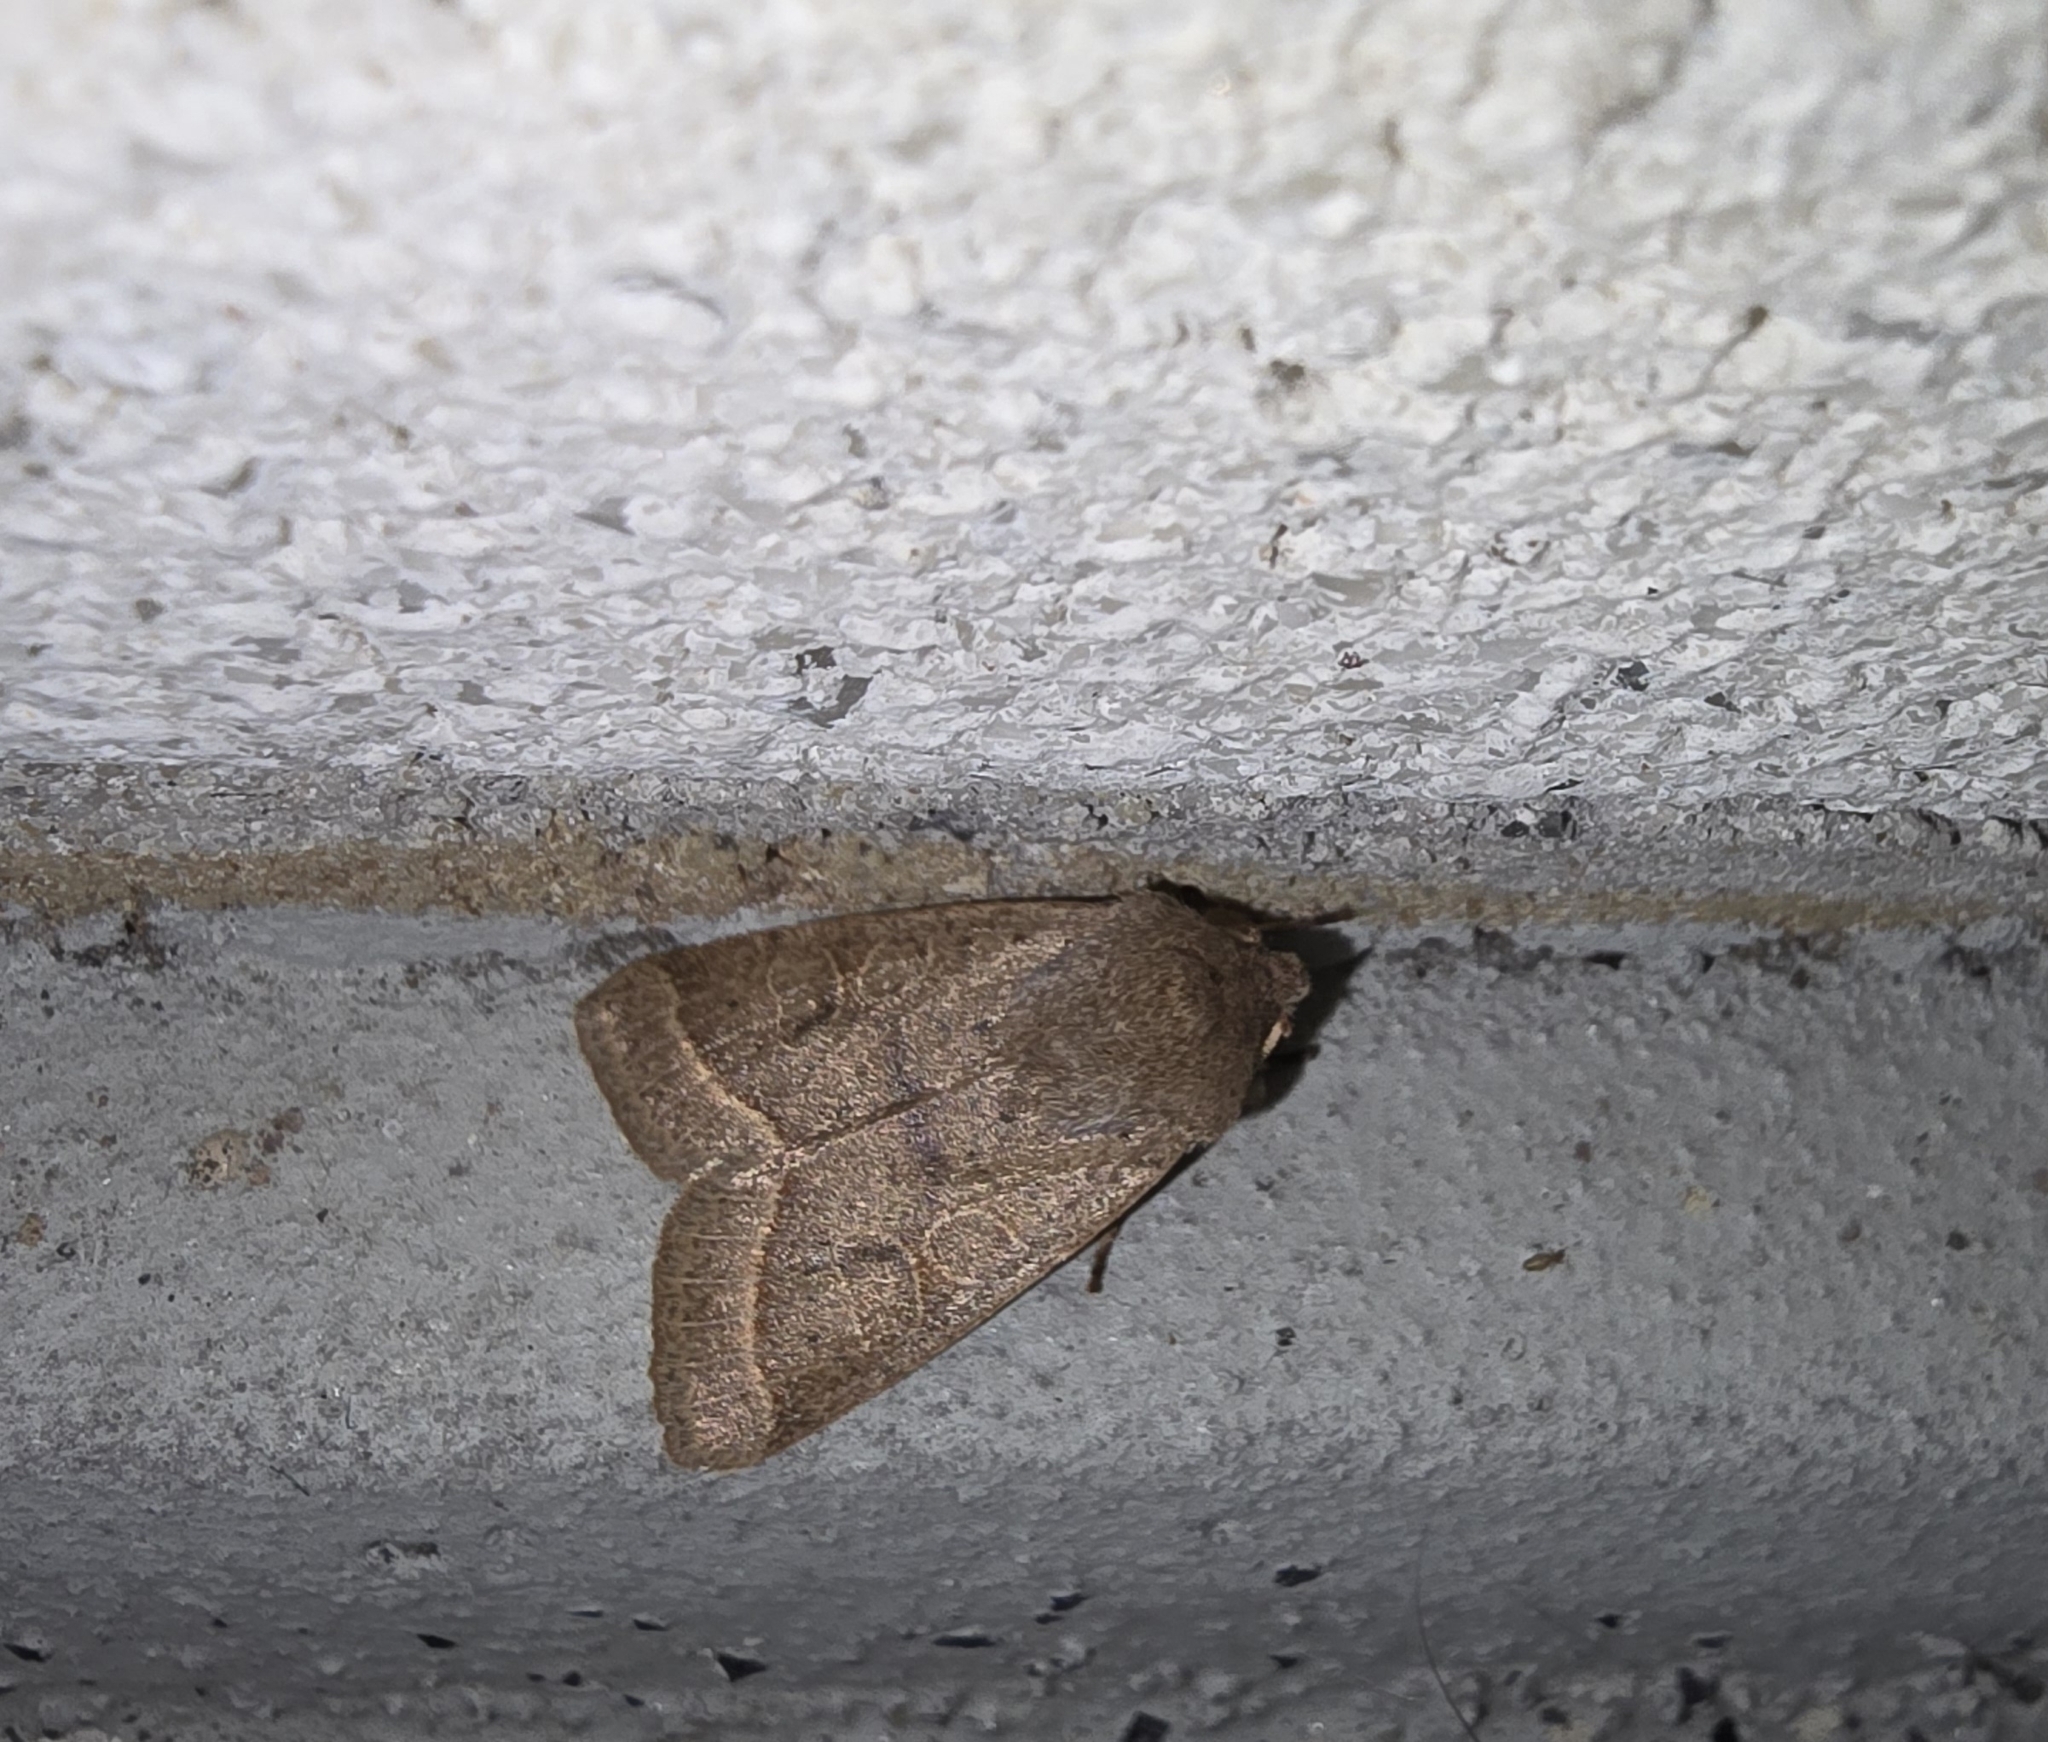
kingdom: Animalia
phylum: Arthropoda
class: Insecta
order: Lepidoptera
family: Noctuidae
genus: Orthosia
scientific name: Orthosia cerasi
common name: Common quaker
